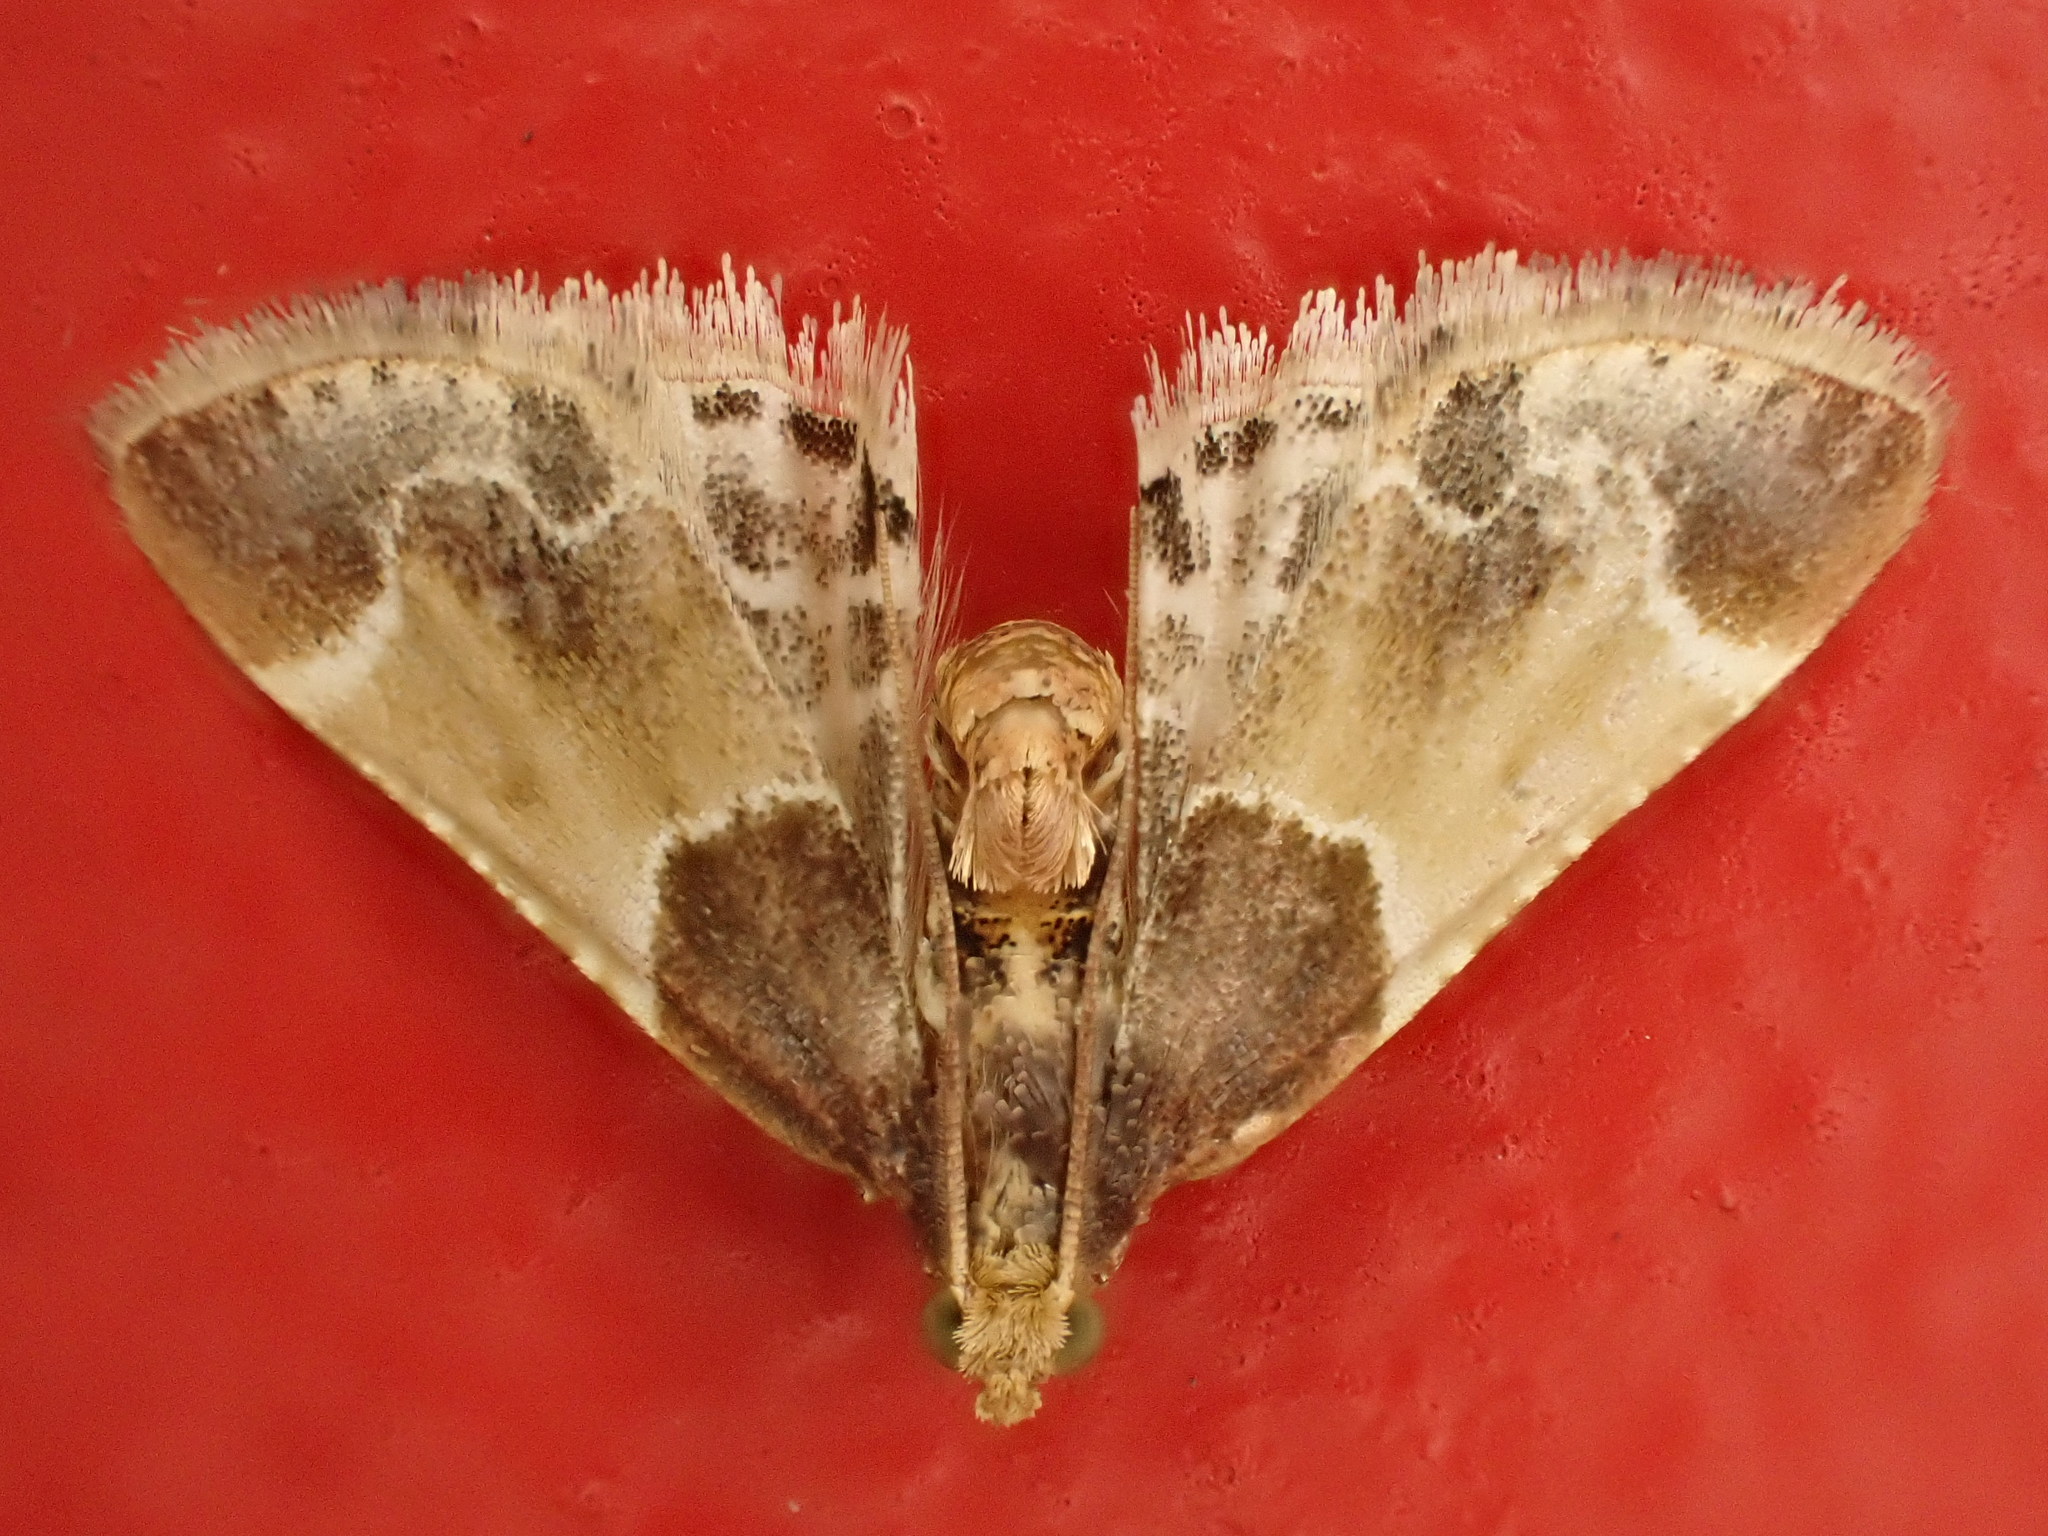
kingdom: Animalia
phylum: Arthropoda
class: Insecta
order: Lepidoptera
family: Pyralidae
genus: Pyralis
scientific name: Pyralis farinalis
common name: Meal moth
